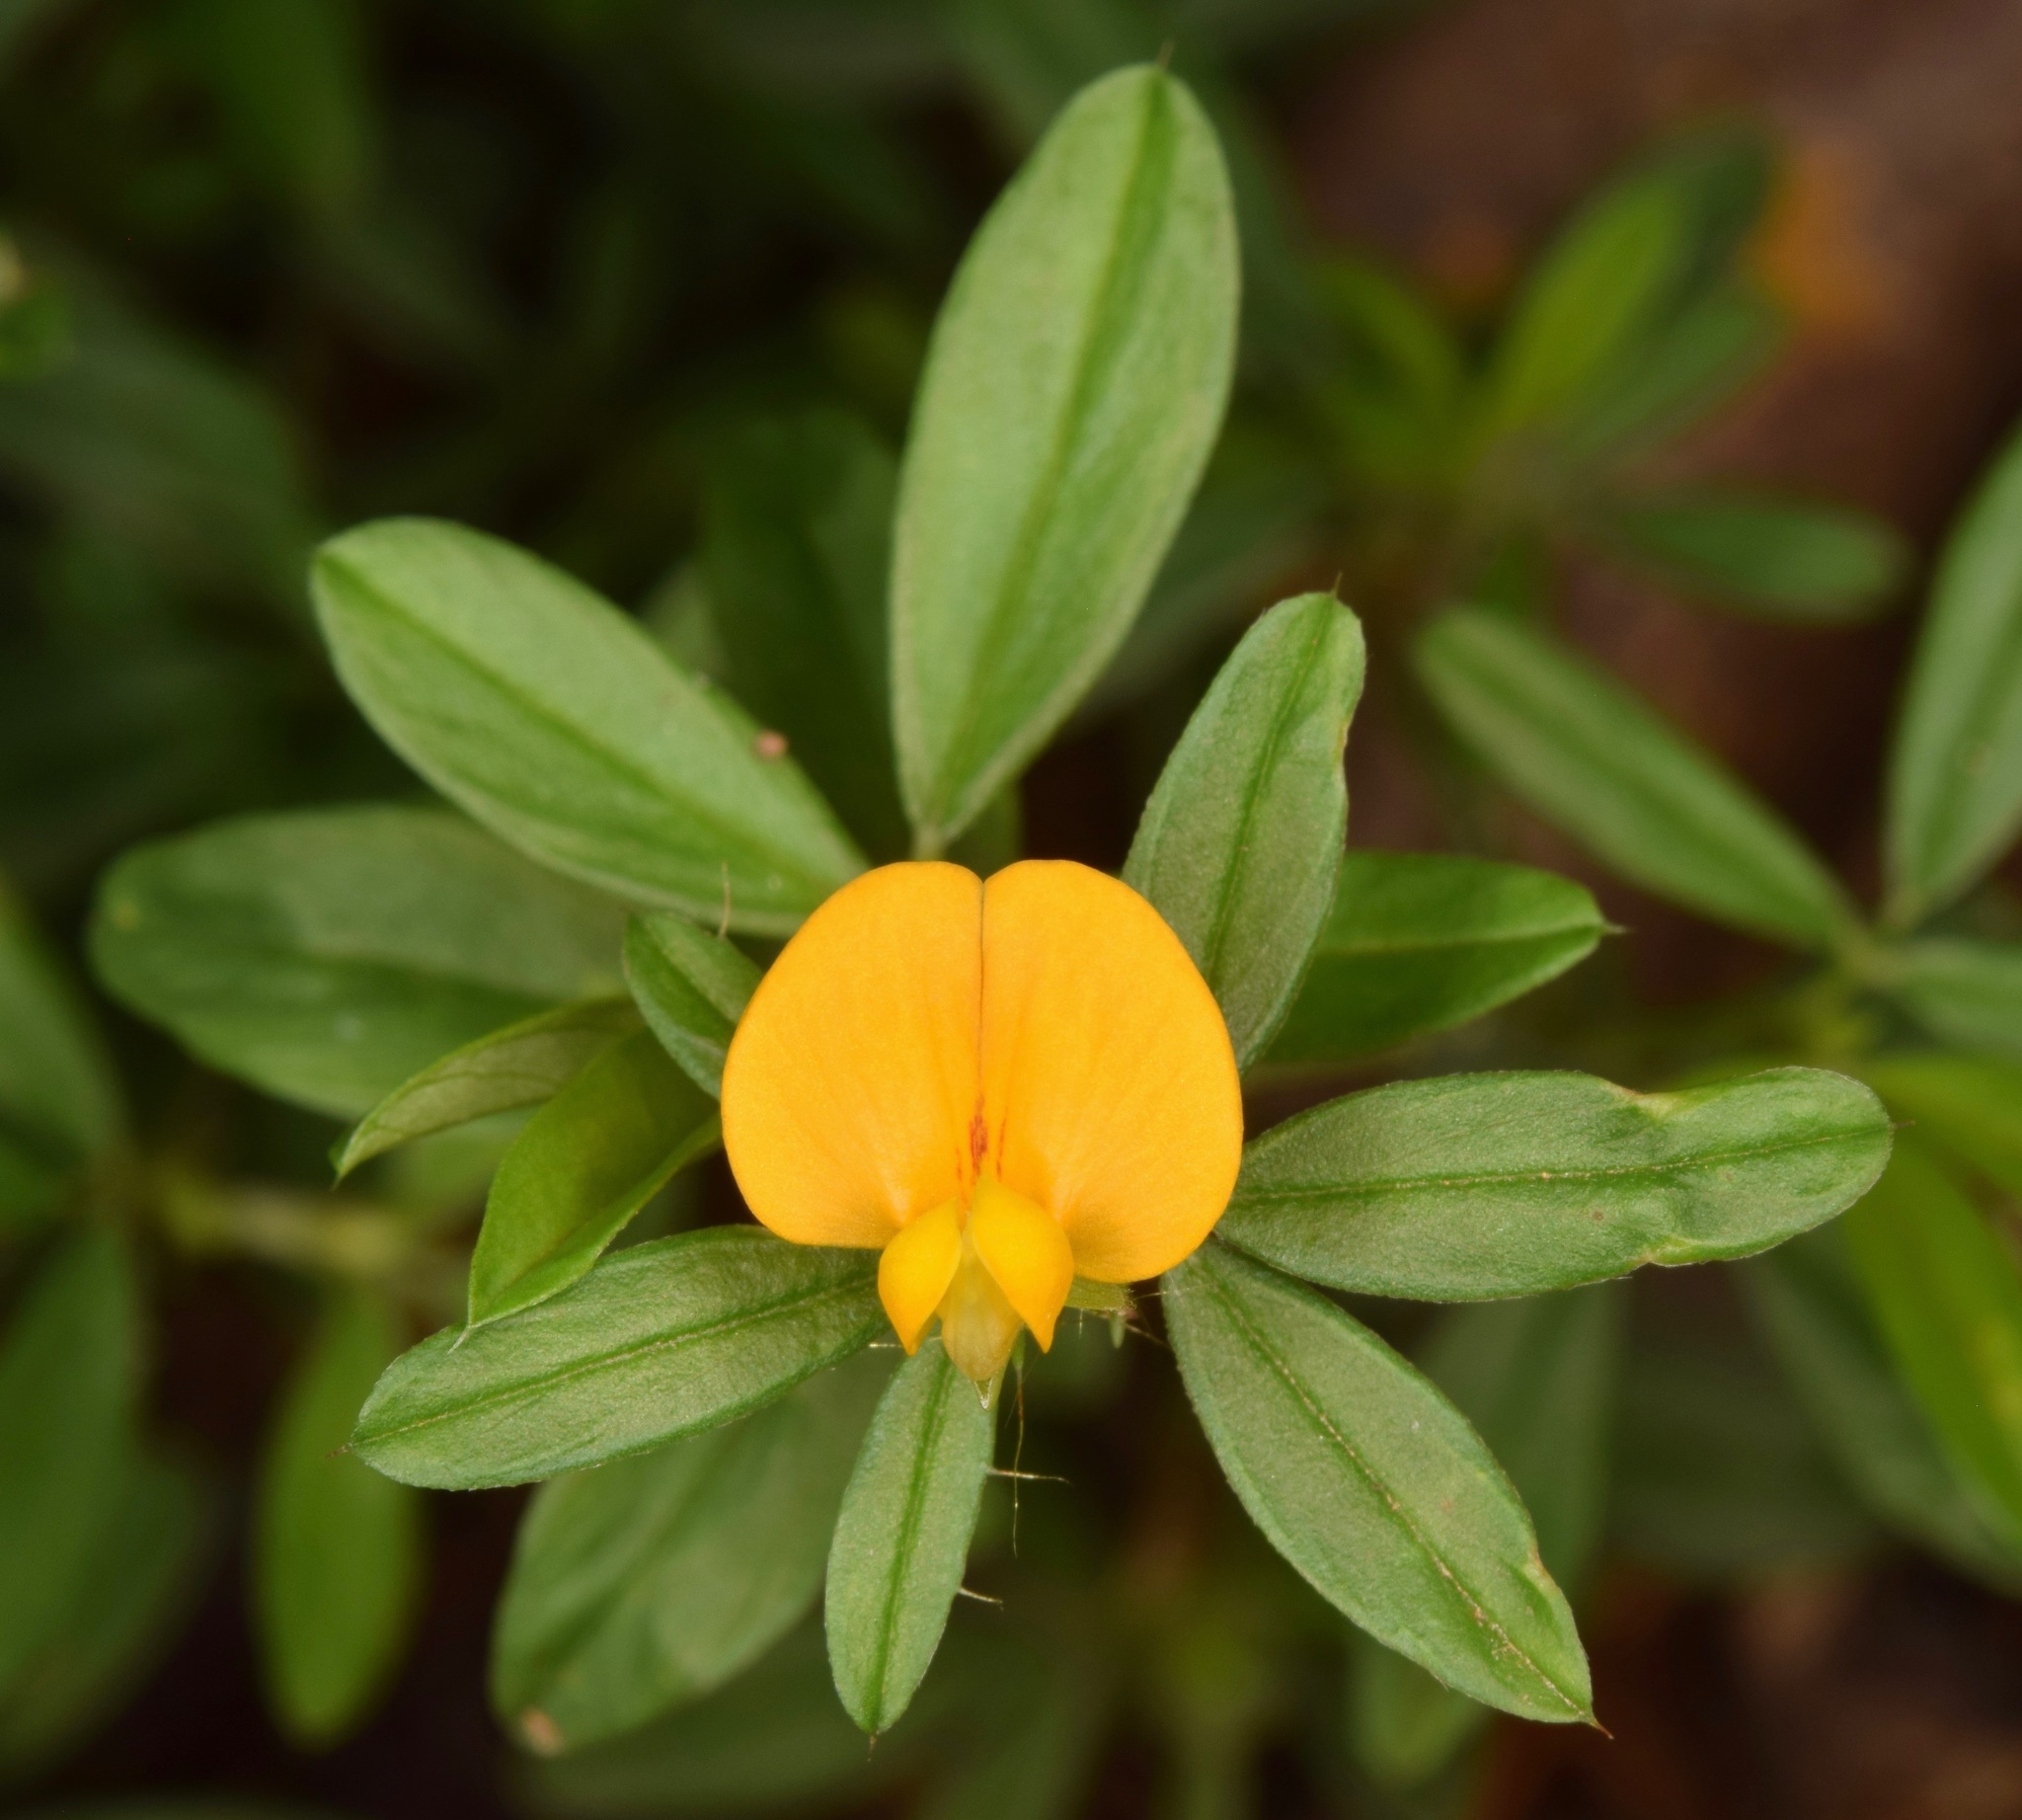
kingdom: Plantae
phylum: Tracheophyta
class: Magnoliopsida
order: Fabales
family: Fabaceae
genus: Stylosanthes
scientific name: Stylosanthes biflora
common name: Two-flower pencil-flower
